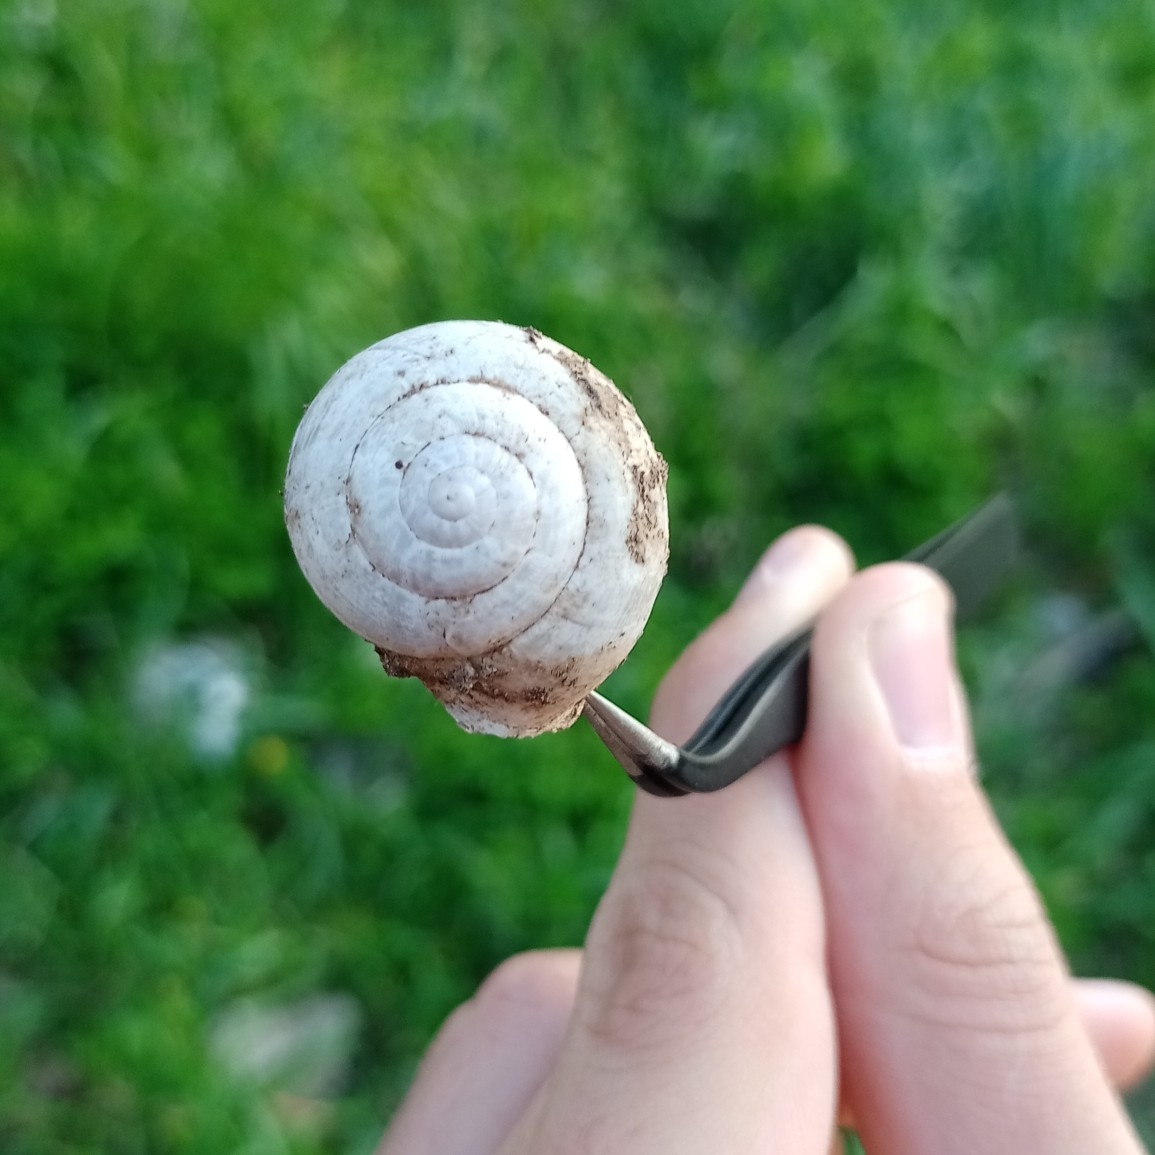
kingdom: Animalia
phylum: Mollusca
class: Gastropoda
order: Stylommatophora
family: Helicidae
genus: Eobania
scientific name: Eobania vermiculata
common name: Chocolateband snail
